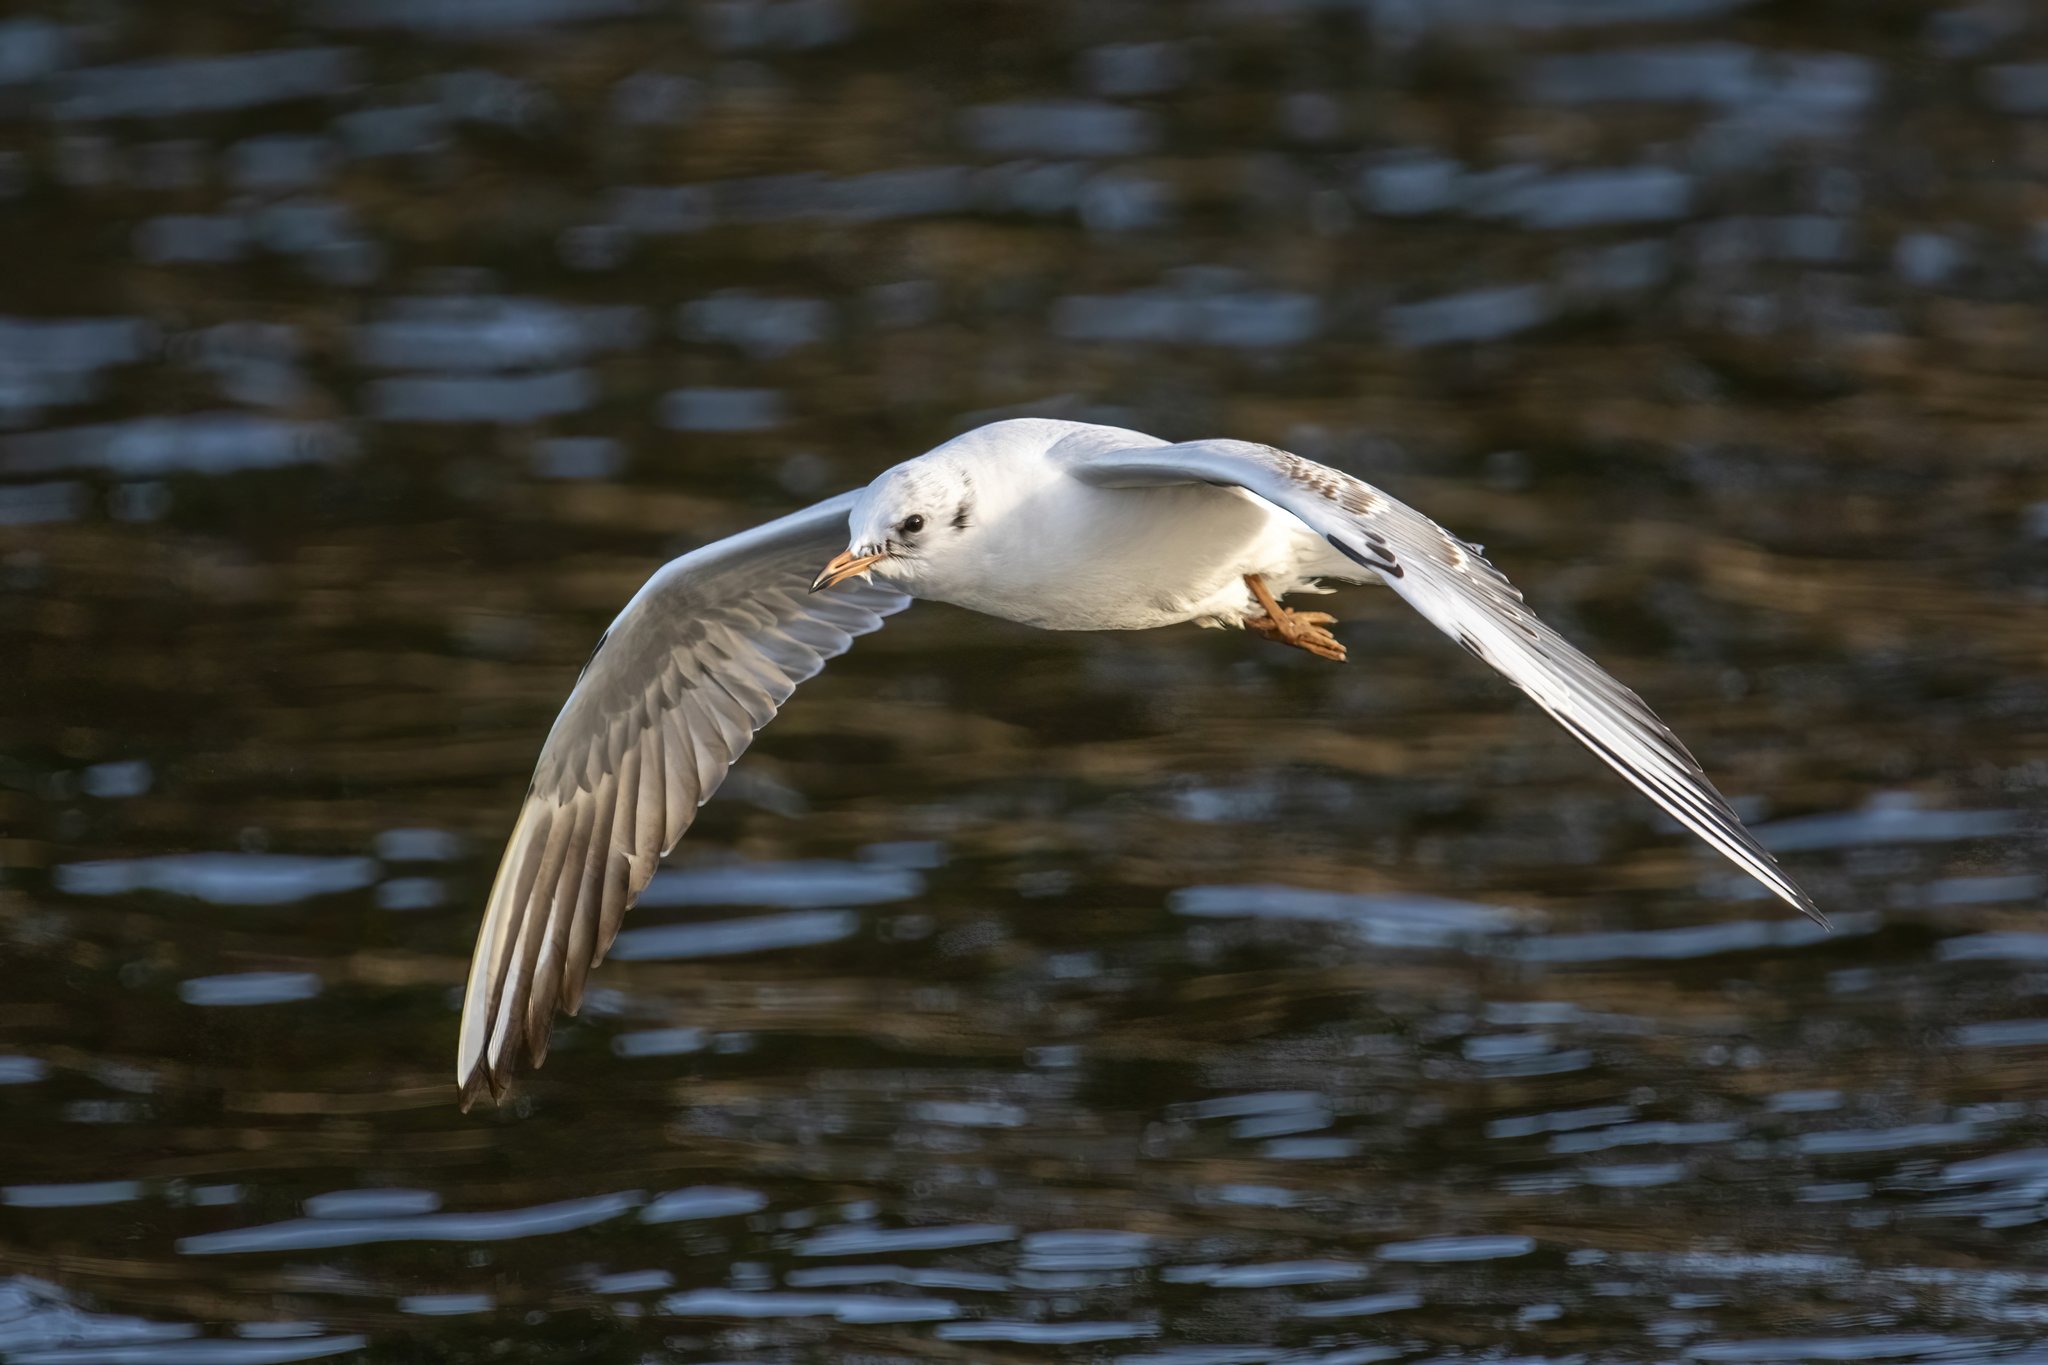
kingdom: Animalia
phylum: Chordata
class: Aves
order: Charadriiformes
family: Laridae
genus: Chroicocephalus
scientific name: Chroicocephalus ridibundus
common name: Black-headed gull
